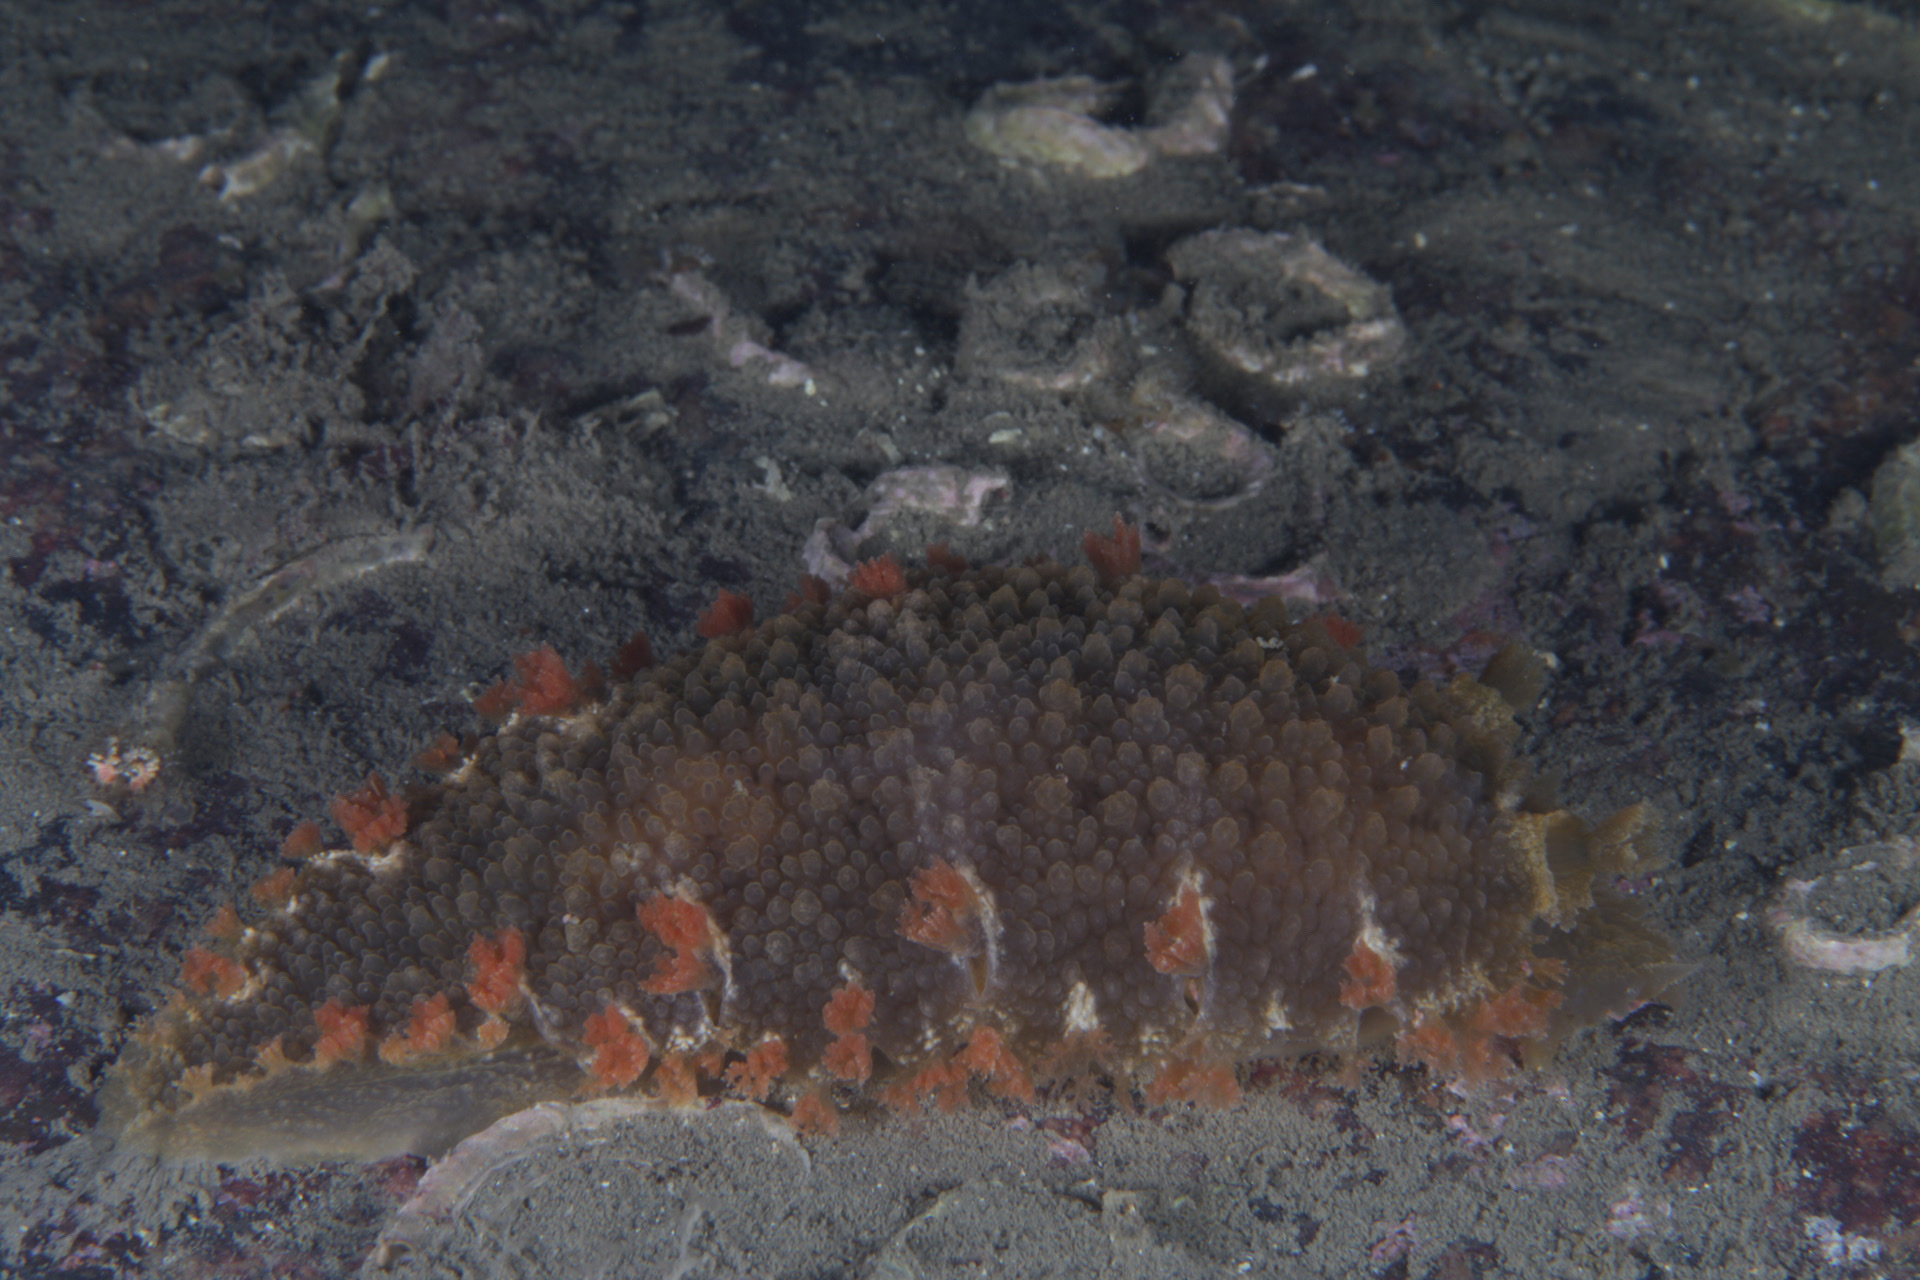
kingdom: Animalia
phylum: Mollusca
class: Gastropoda
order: Nudibranchia
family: Tritoniidae
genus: Tritonia
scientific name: Tritonia hombergii
